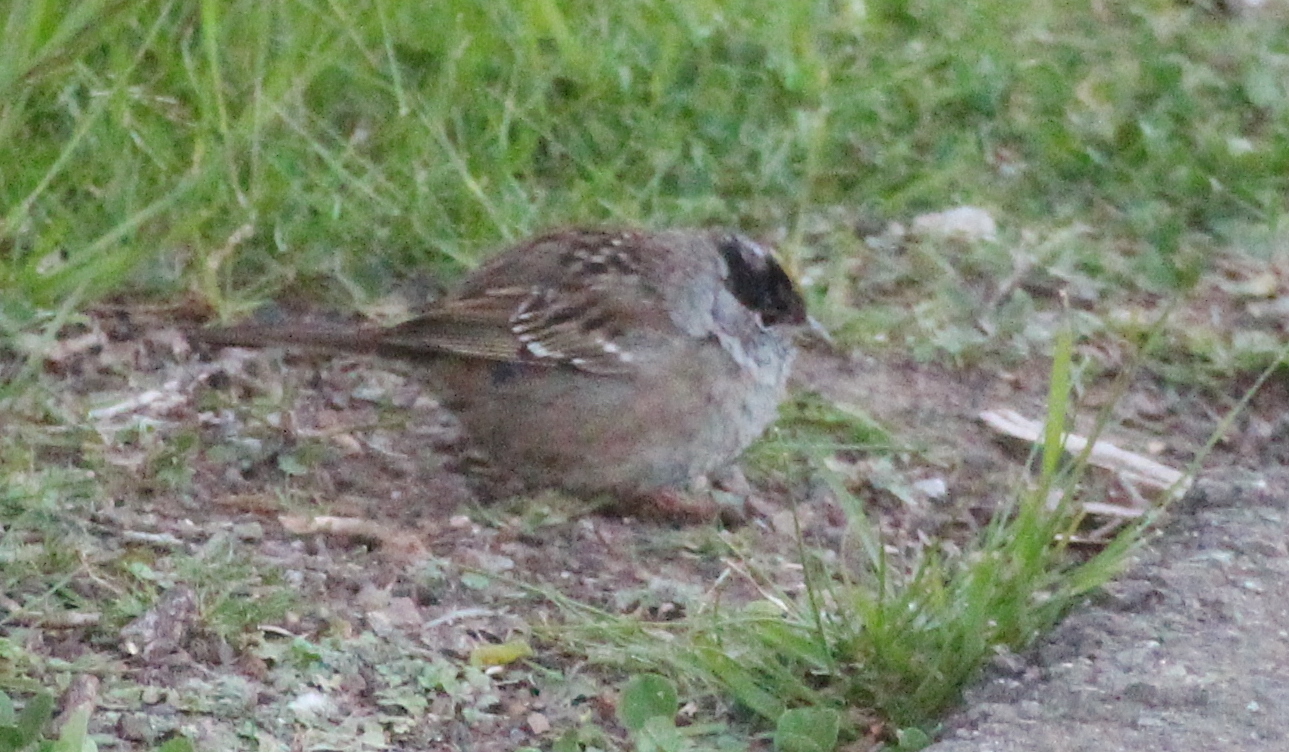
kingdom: Animalia
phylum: Chordata
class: Aves
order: Passeriformes
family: Passerellidae
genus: Zonotrichia
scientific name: Zonotrichia atricapilla
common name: Golden-crowned sparrow
